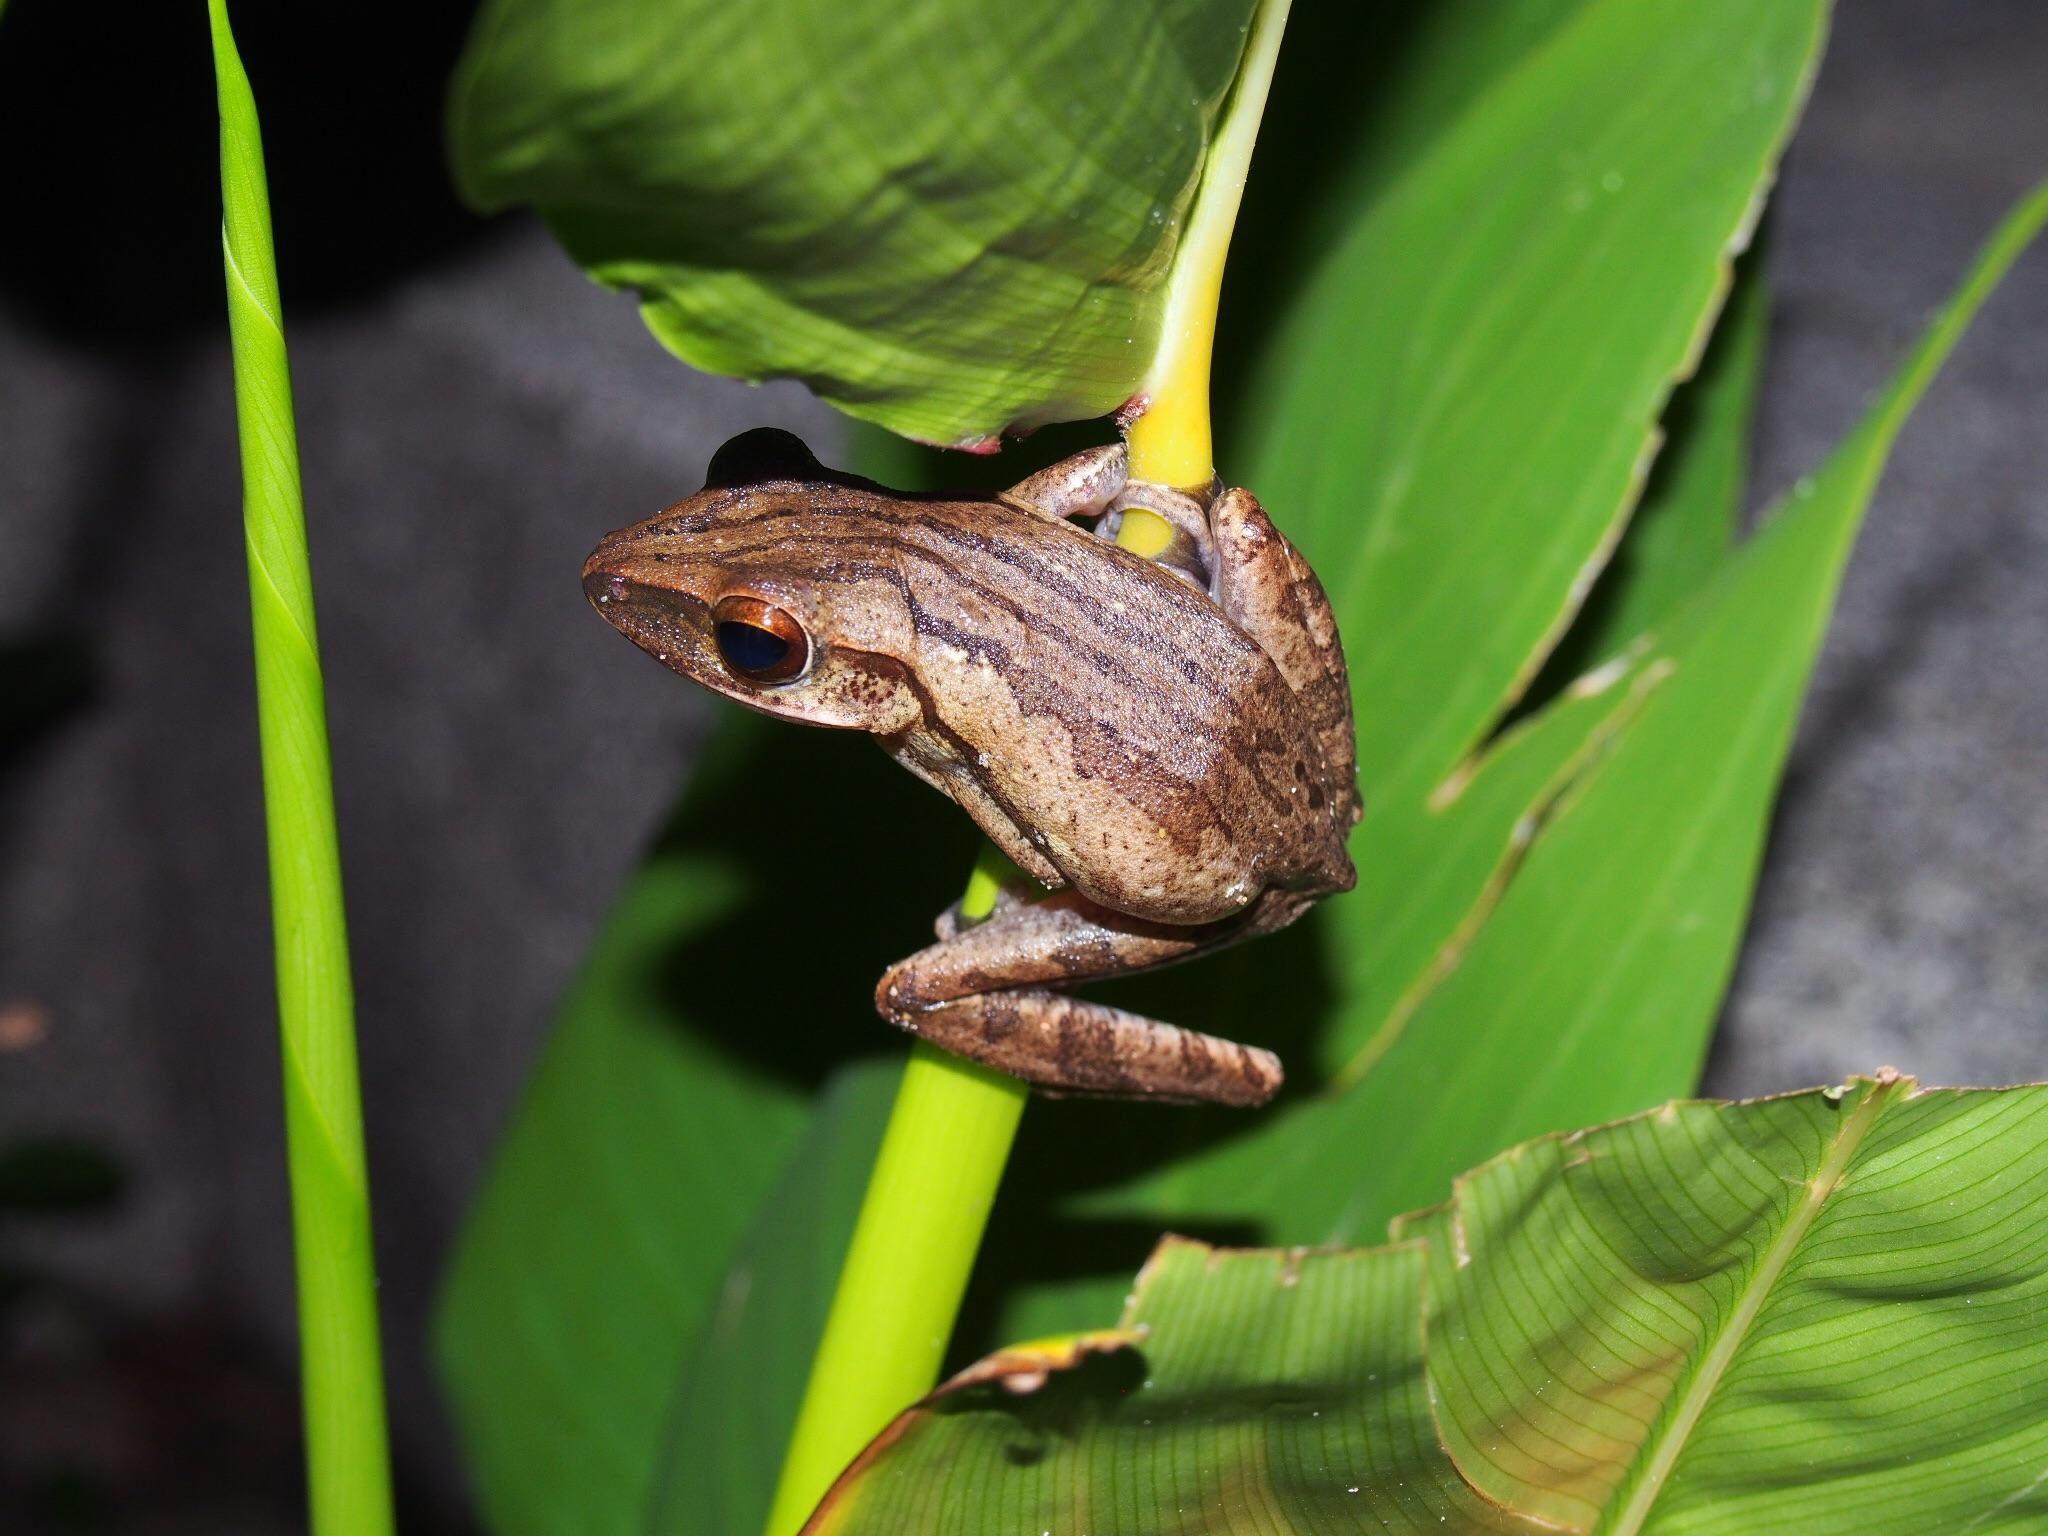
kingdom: Animalia
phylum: Chordata
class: Amphibia
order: Anura
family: Rhacophoridae
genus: Polypedates
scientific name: Polypedates leucomystax
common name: Common tree frog/four-lined tree frog
